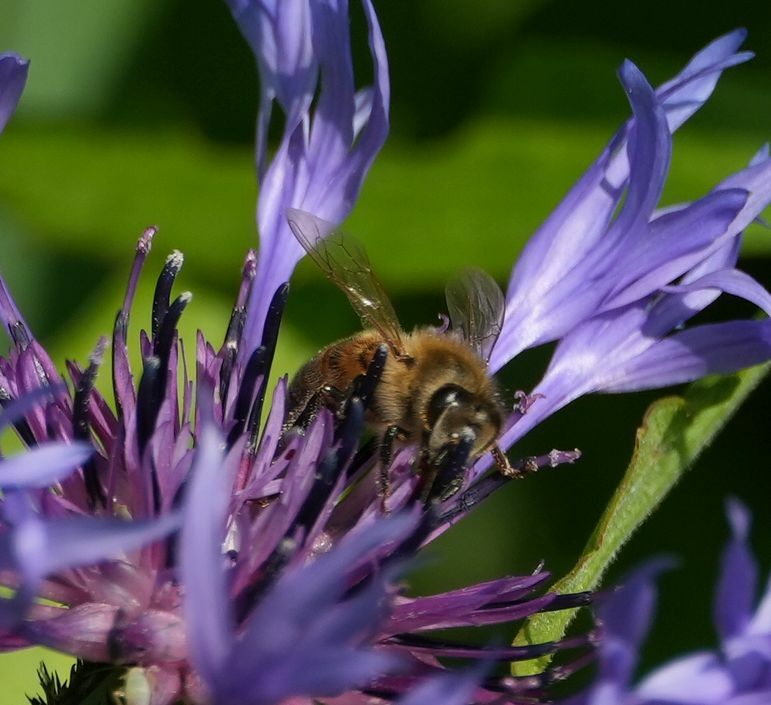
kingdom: Animalia
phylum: Arthropoda
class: Insecta
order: Hymenoptera
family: Apidae
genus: Apis
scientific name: Apis mellifera
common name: Honey bee
